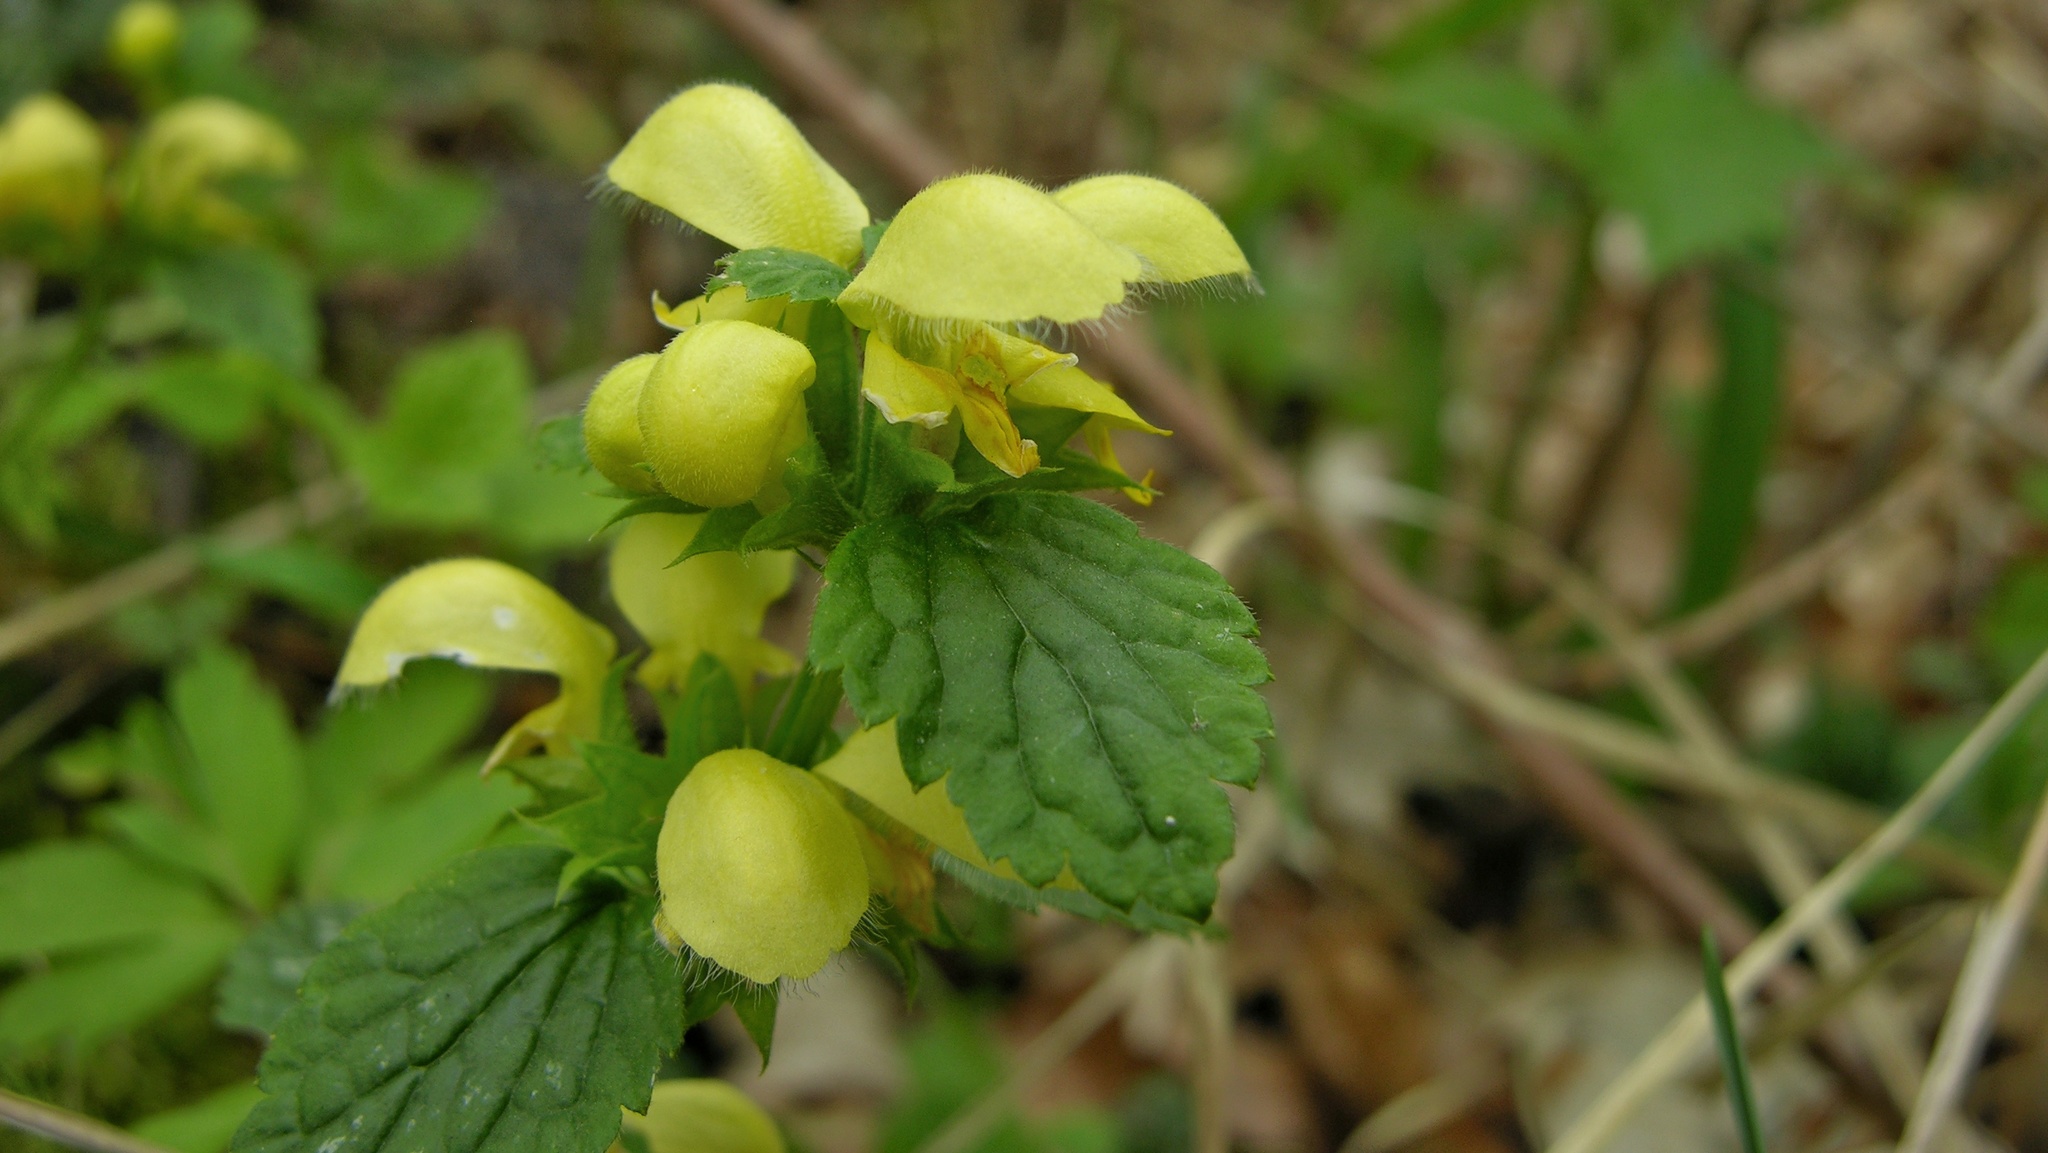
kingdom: Plantae
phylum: Tracheophyta
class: Magnoliopsida
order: Lamiales
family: Lamiaceae
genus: Lamium
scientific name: Lamium galeobdolon
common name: Yellow archangel
